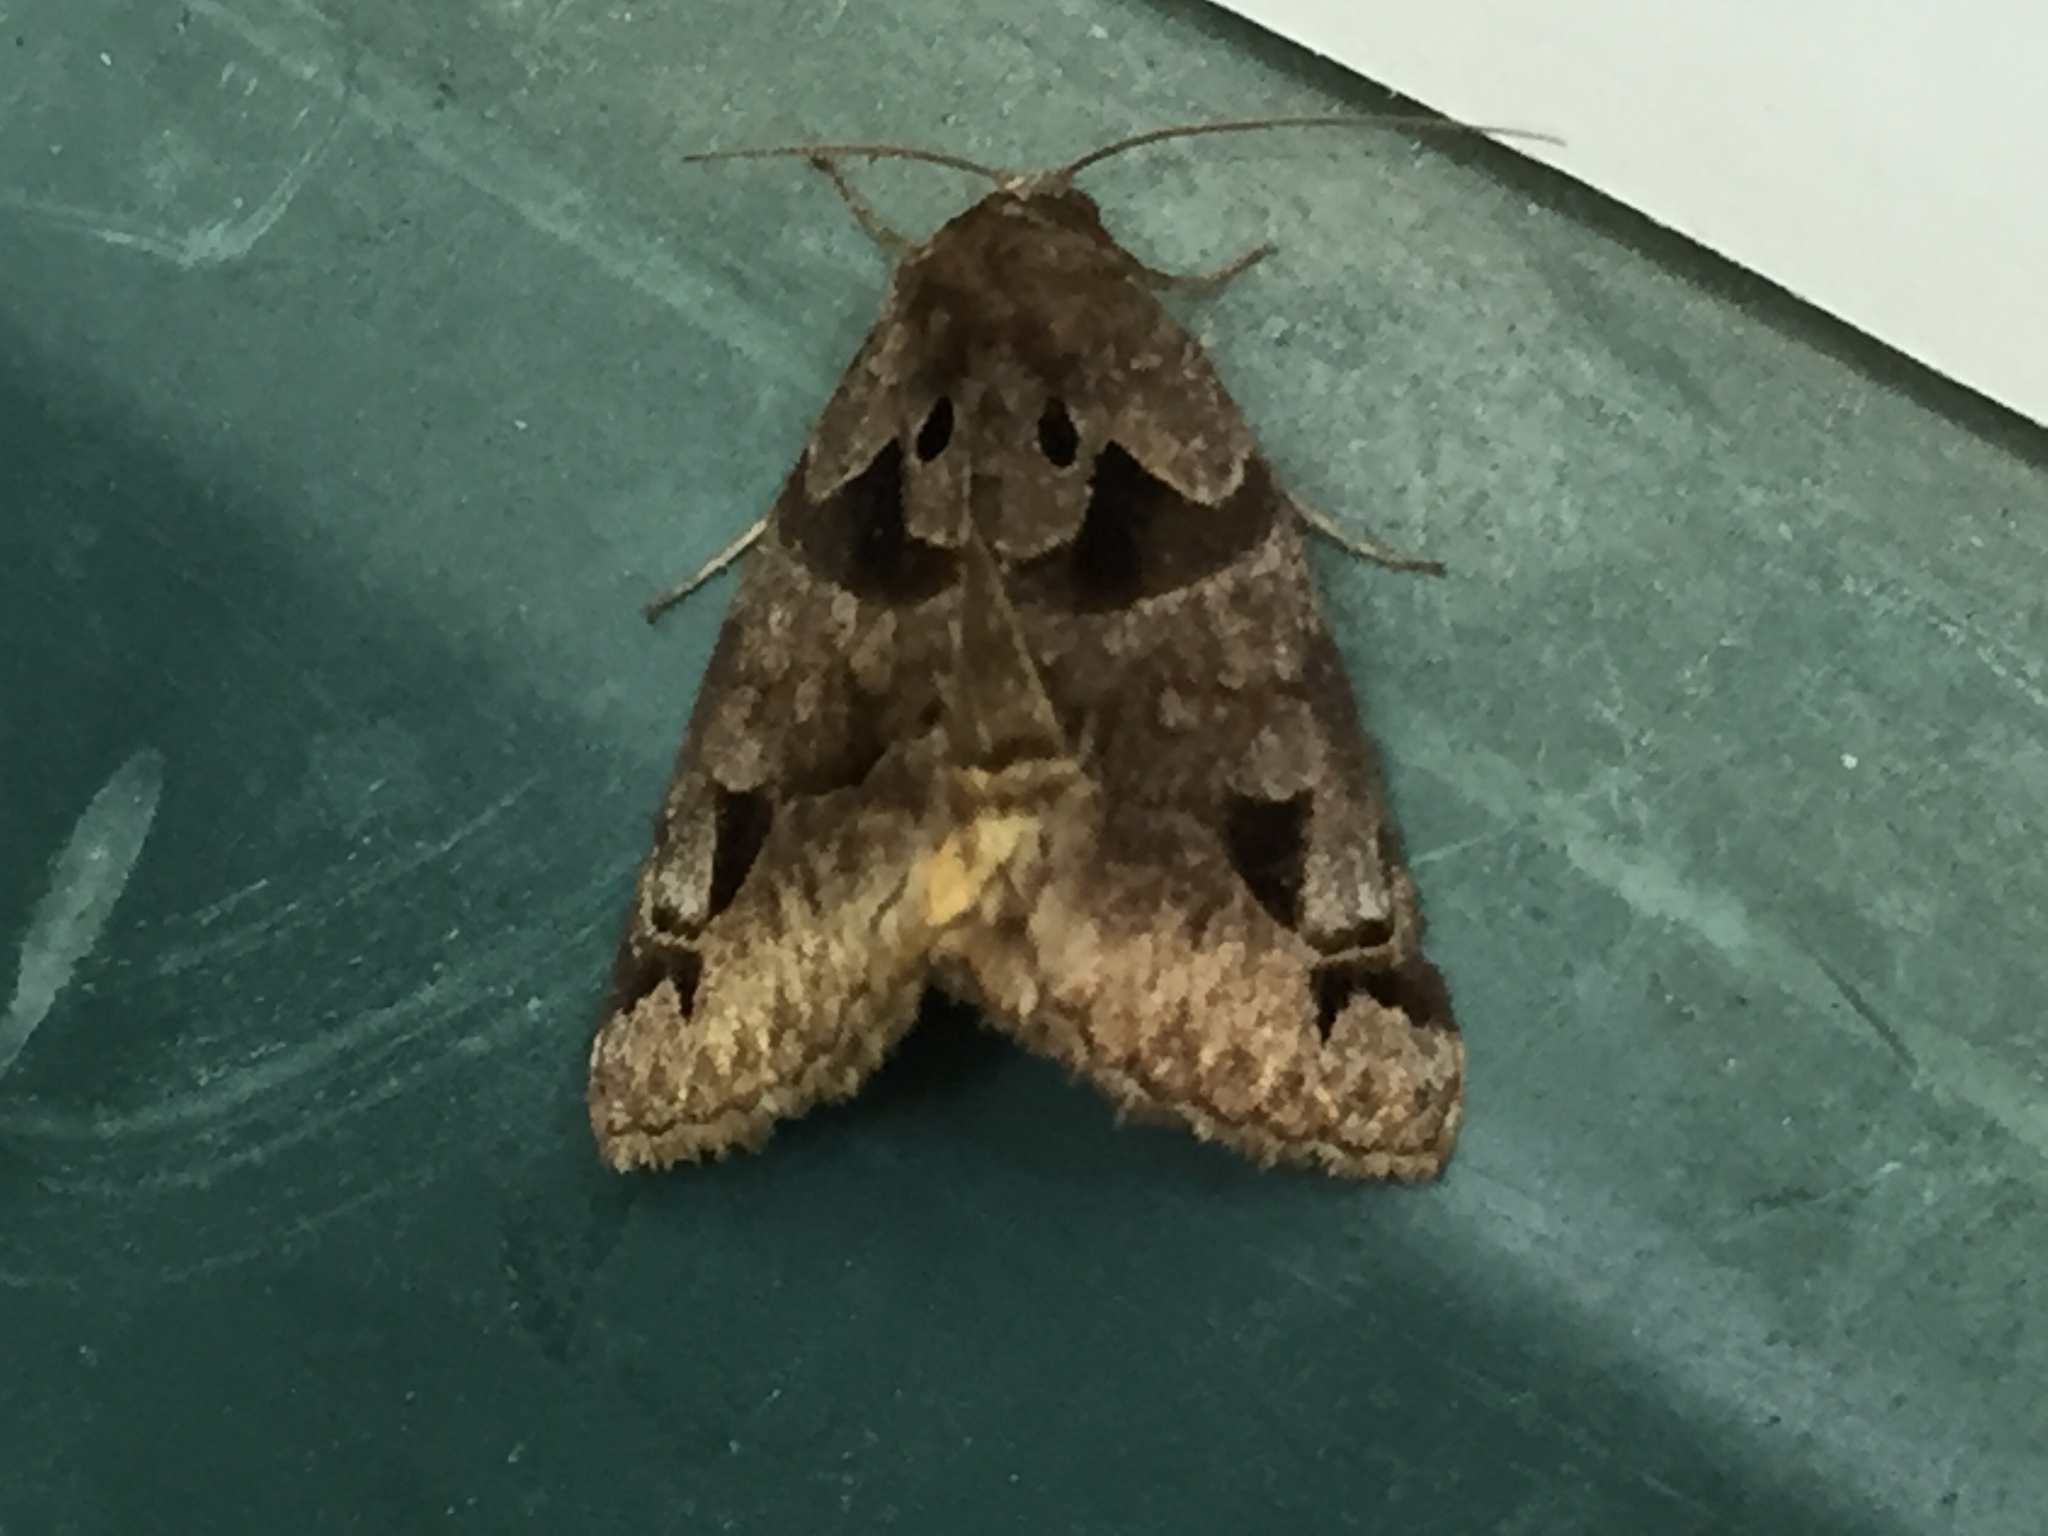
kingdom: Animalia
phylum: Arthropoda
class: Insecta
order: Lepidoptera
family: Erebidae
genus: Euclidia
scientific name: Euclidia cuspidea
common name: Toothed somberwing
